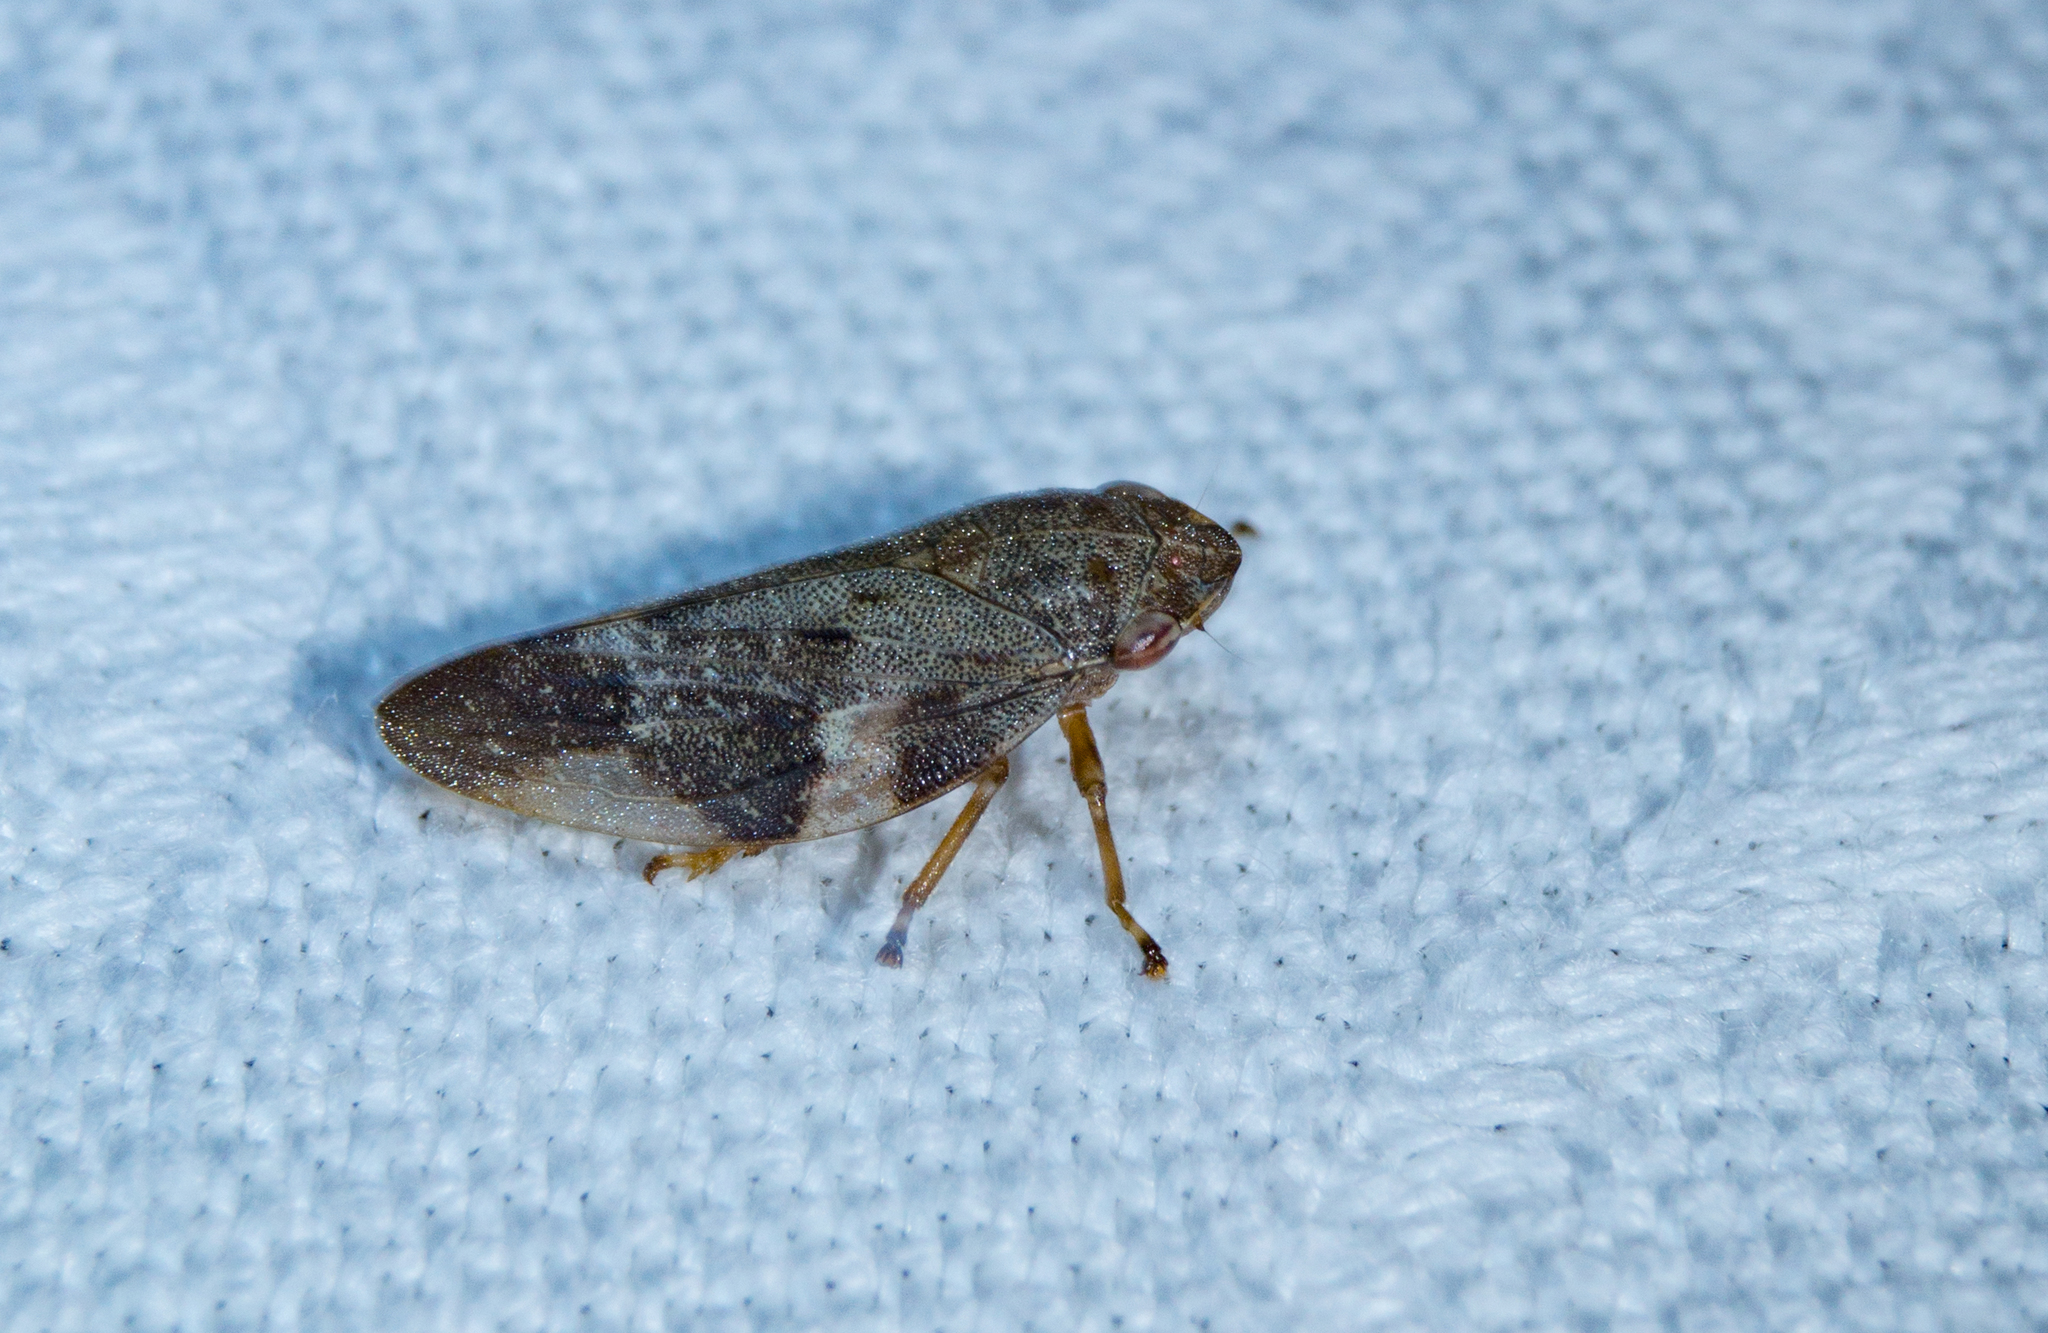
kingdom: Animalia
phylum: Arthropoda
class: Insecta
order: Hemiptera
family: Aphrophoridae
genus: Aphrophora
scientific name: Aphrophora alni
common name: European alder spittlebug
